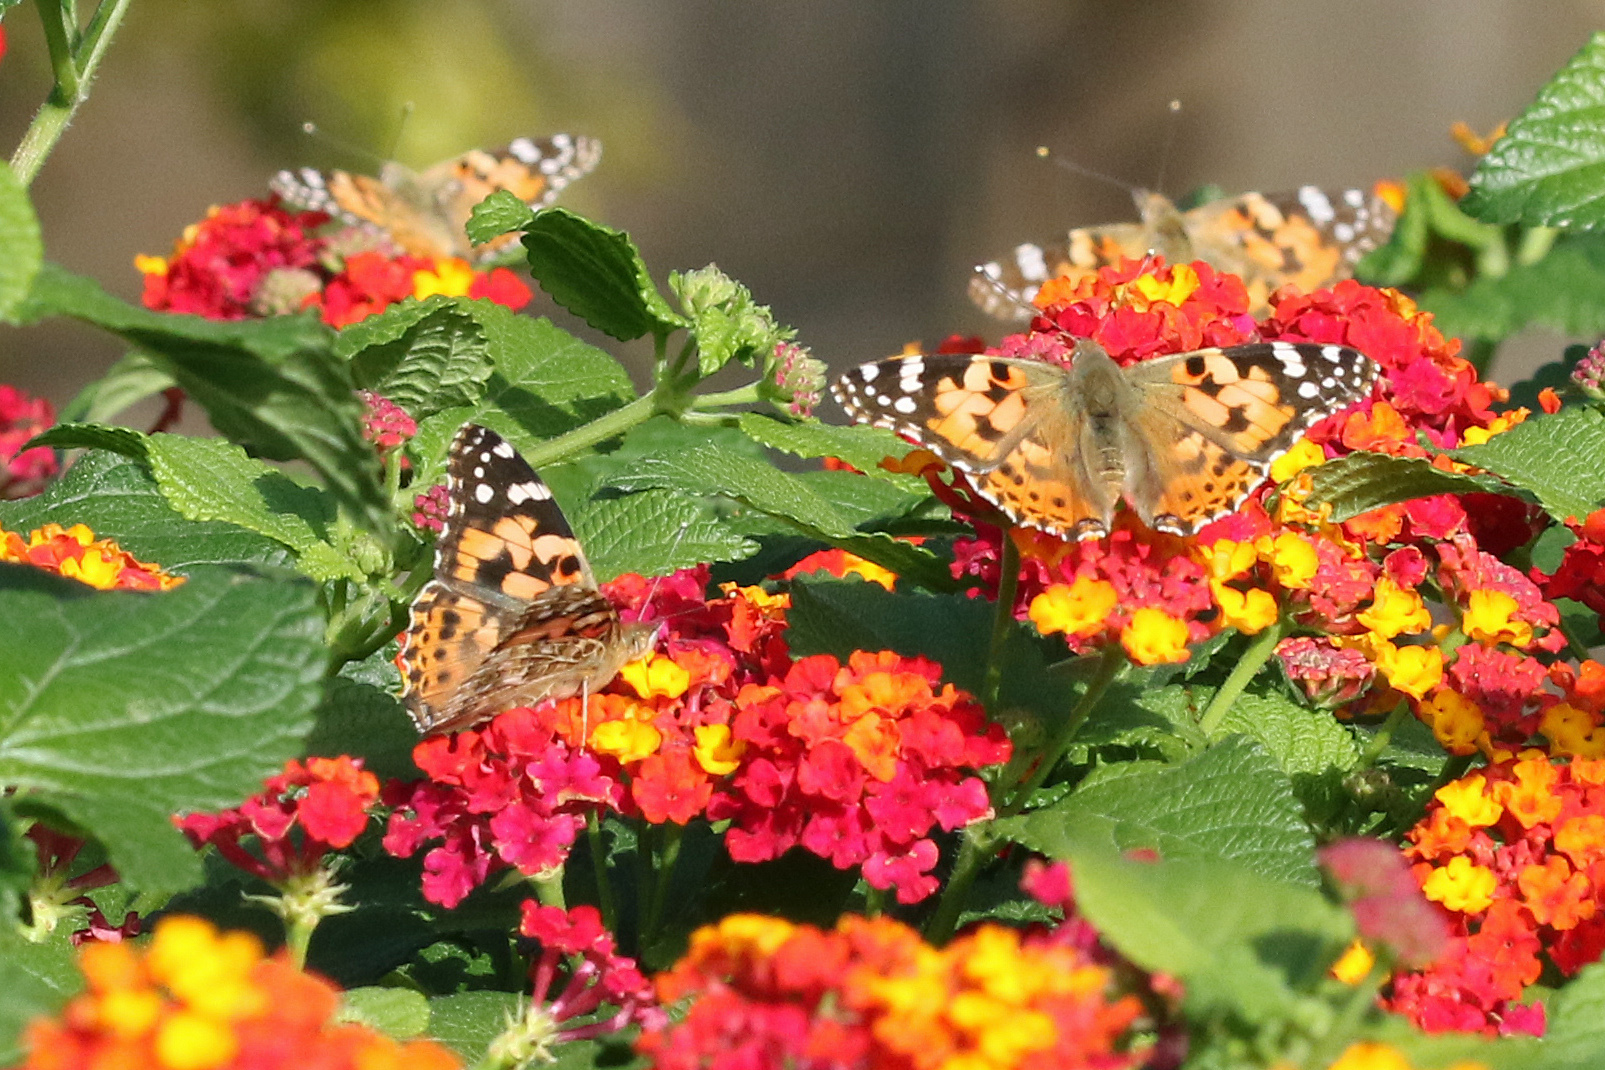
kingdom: Animalia
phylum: Arthropoda
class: Insecta
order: Lepidoptera
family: Nymphalidae
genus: Vanessa
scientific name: Vanessa cardui
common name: Painted lady
